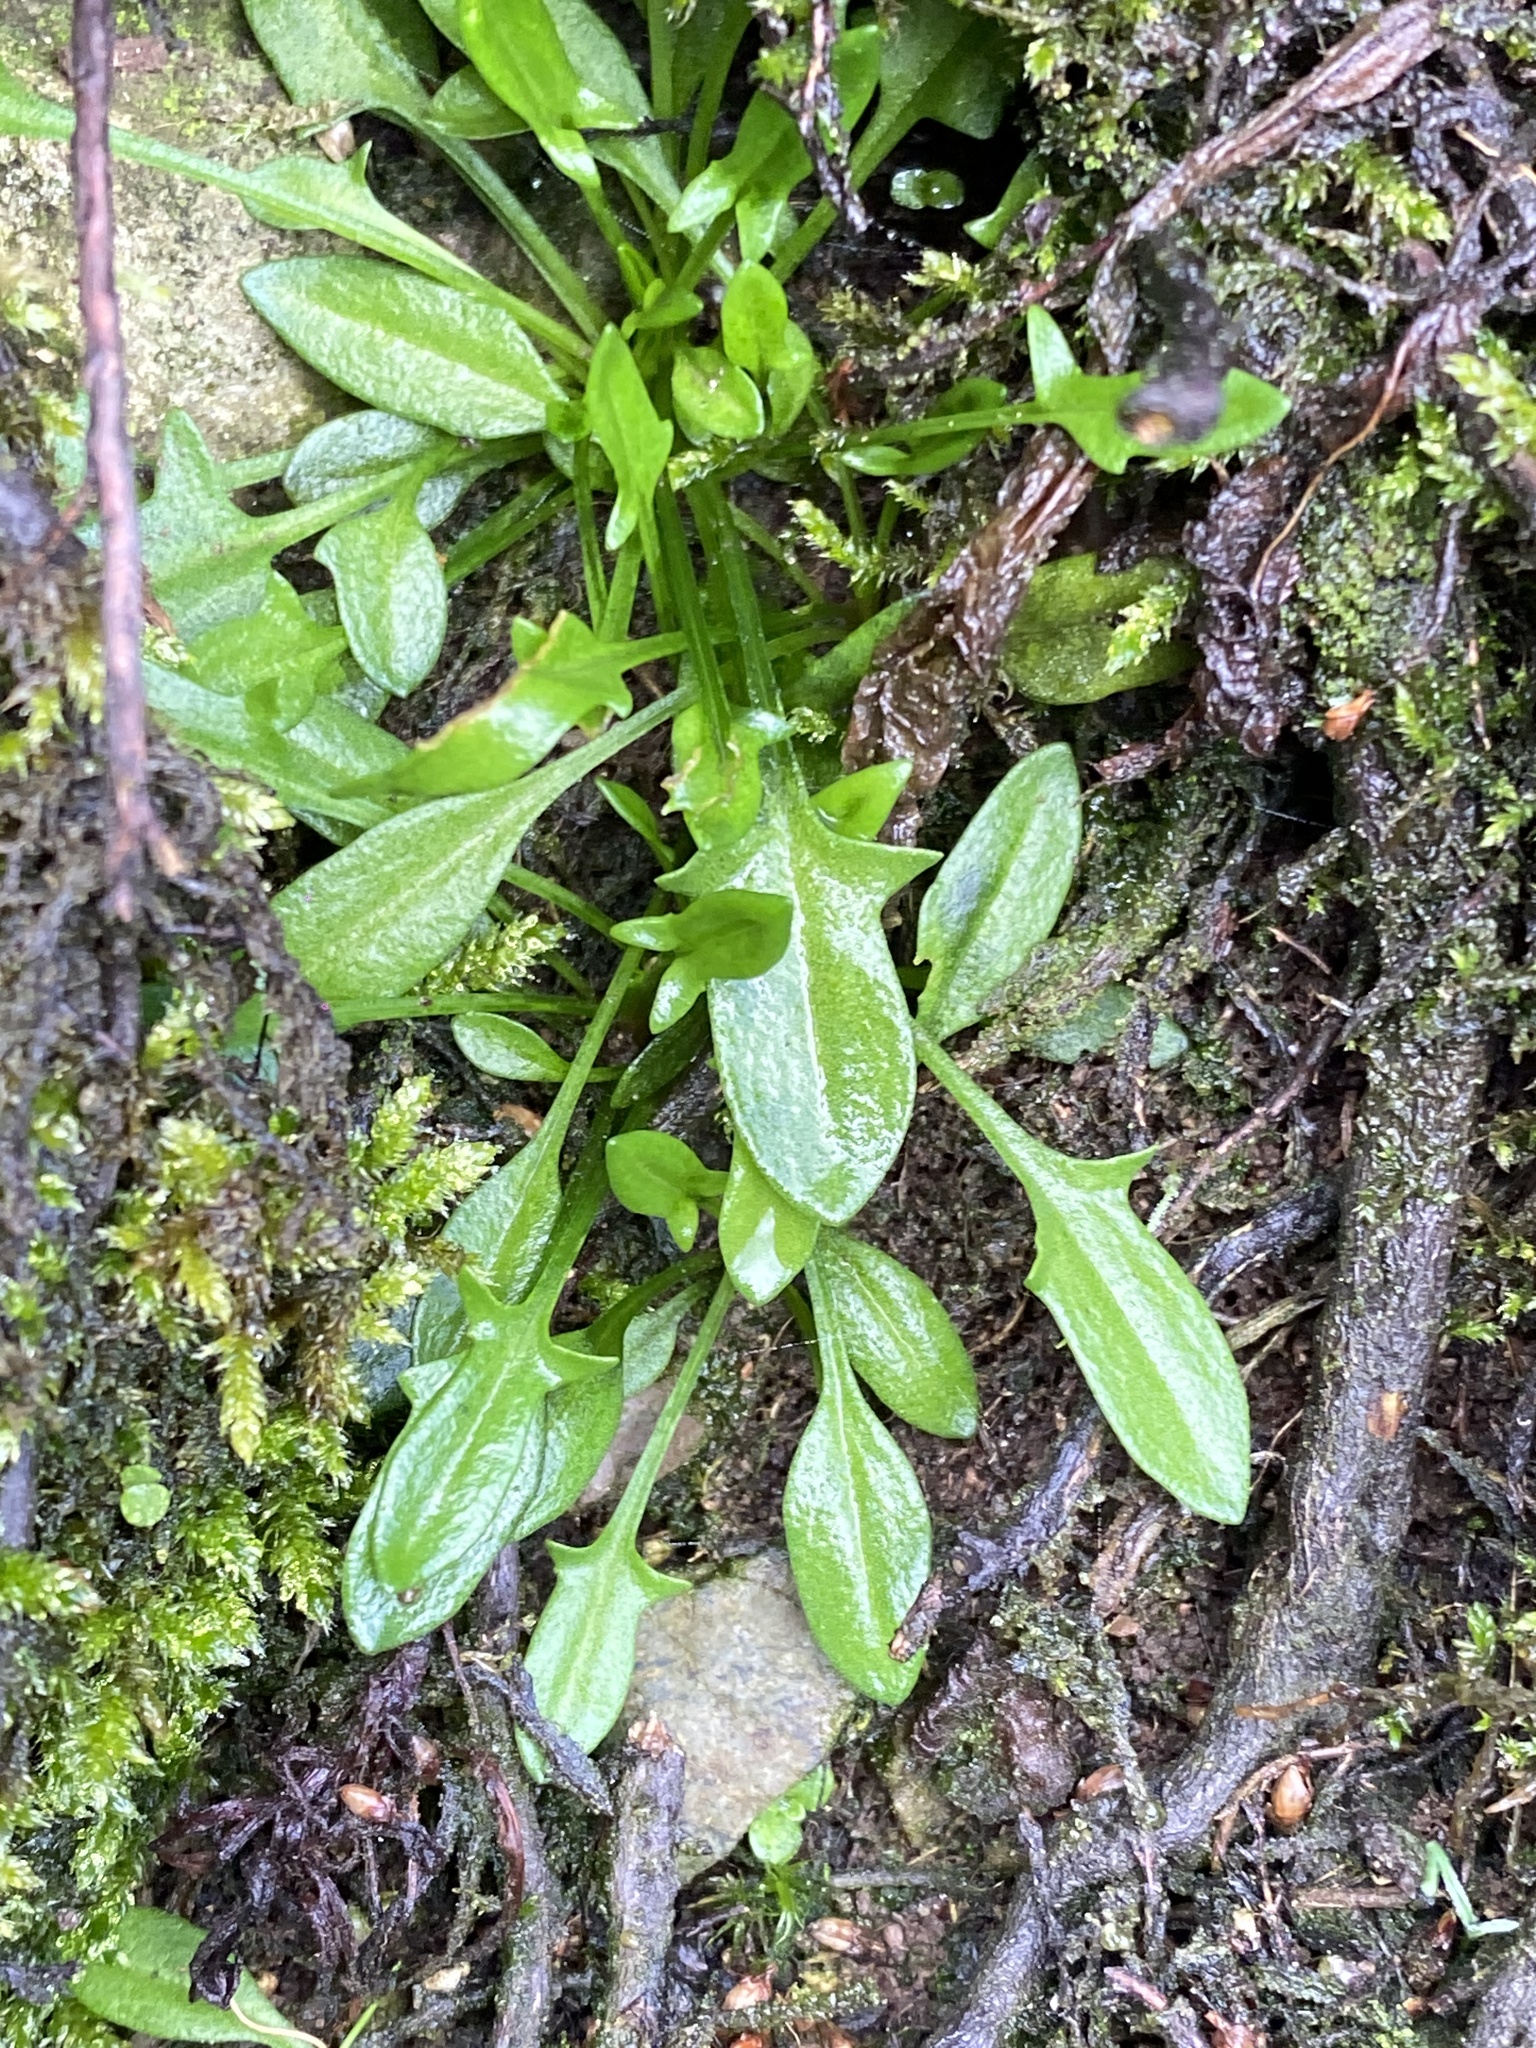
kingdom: Plantae
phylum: Tracheophyta
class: Magnoliopsida
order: Caryophyllales
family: Polygonaceae
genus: Rumex
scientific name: Rumex acetosella
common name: Common sheep sorrel
